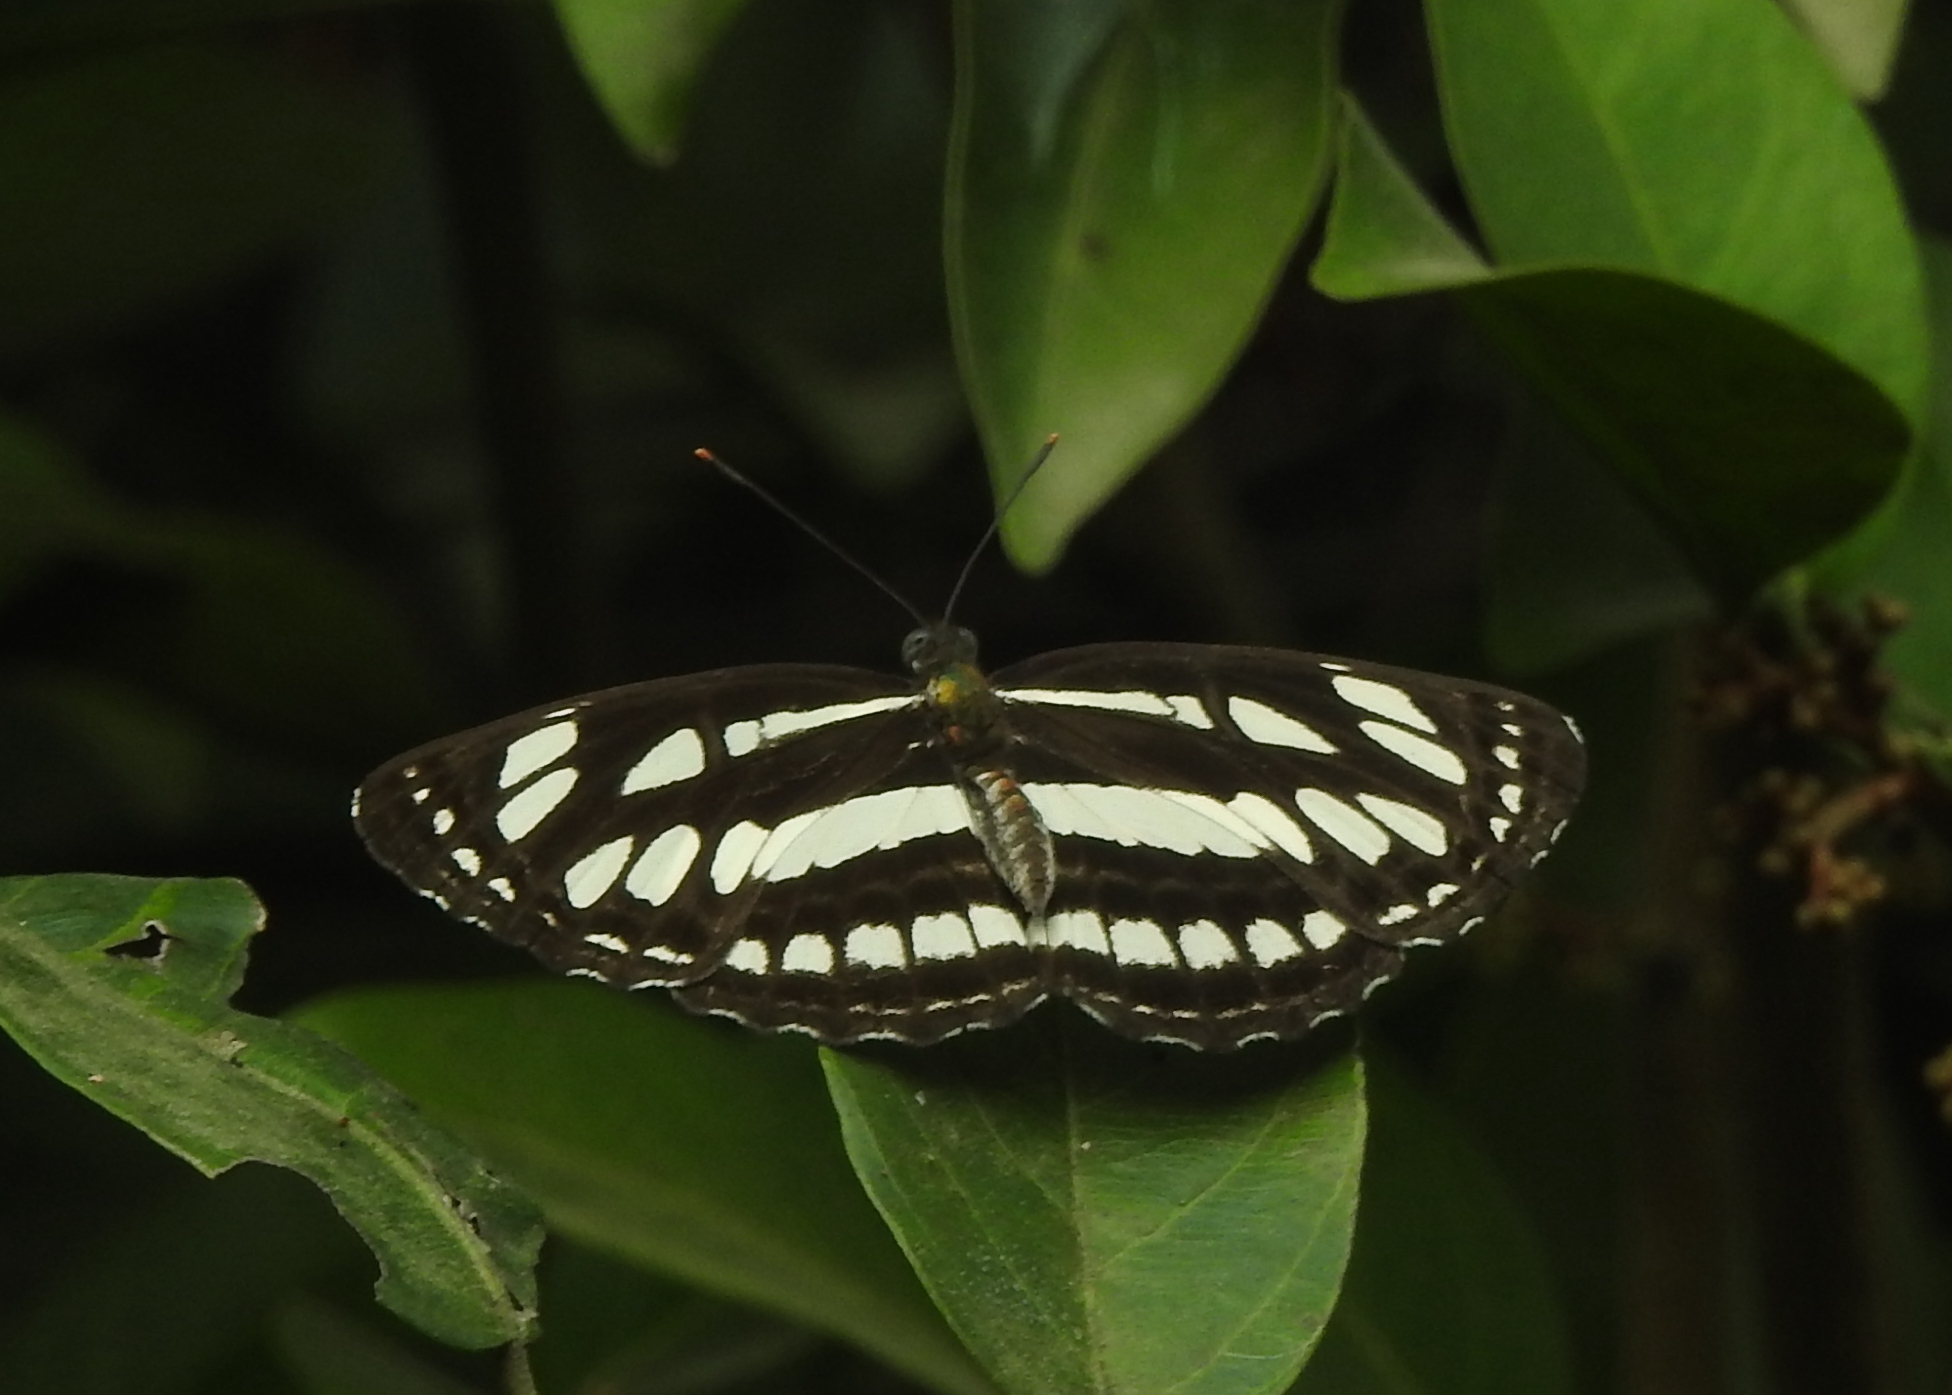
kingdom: Animalia
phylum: Arthropoda
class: Insecta
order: Lepidoptera
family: Nymphalidae
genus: Neptis
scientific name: Neptis hylas
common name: Common sailer
